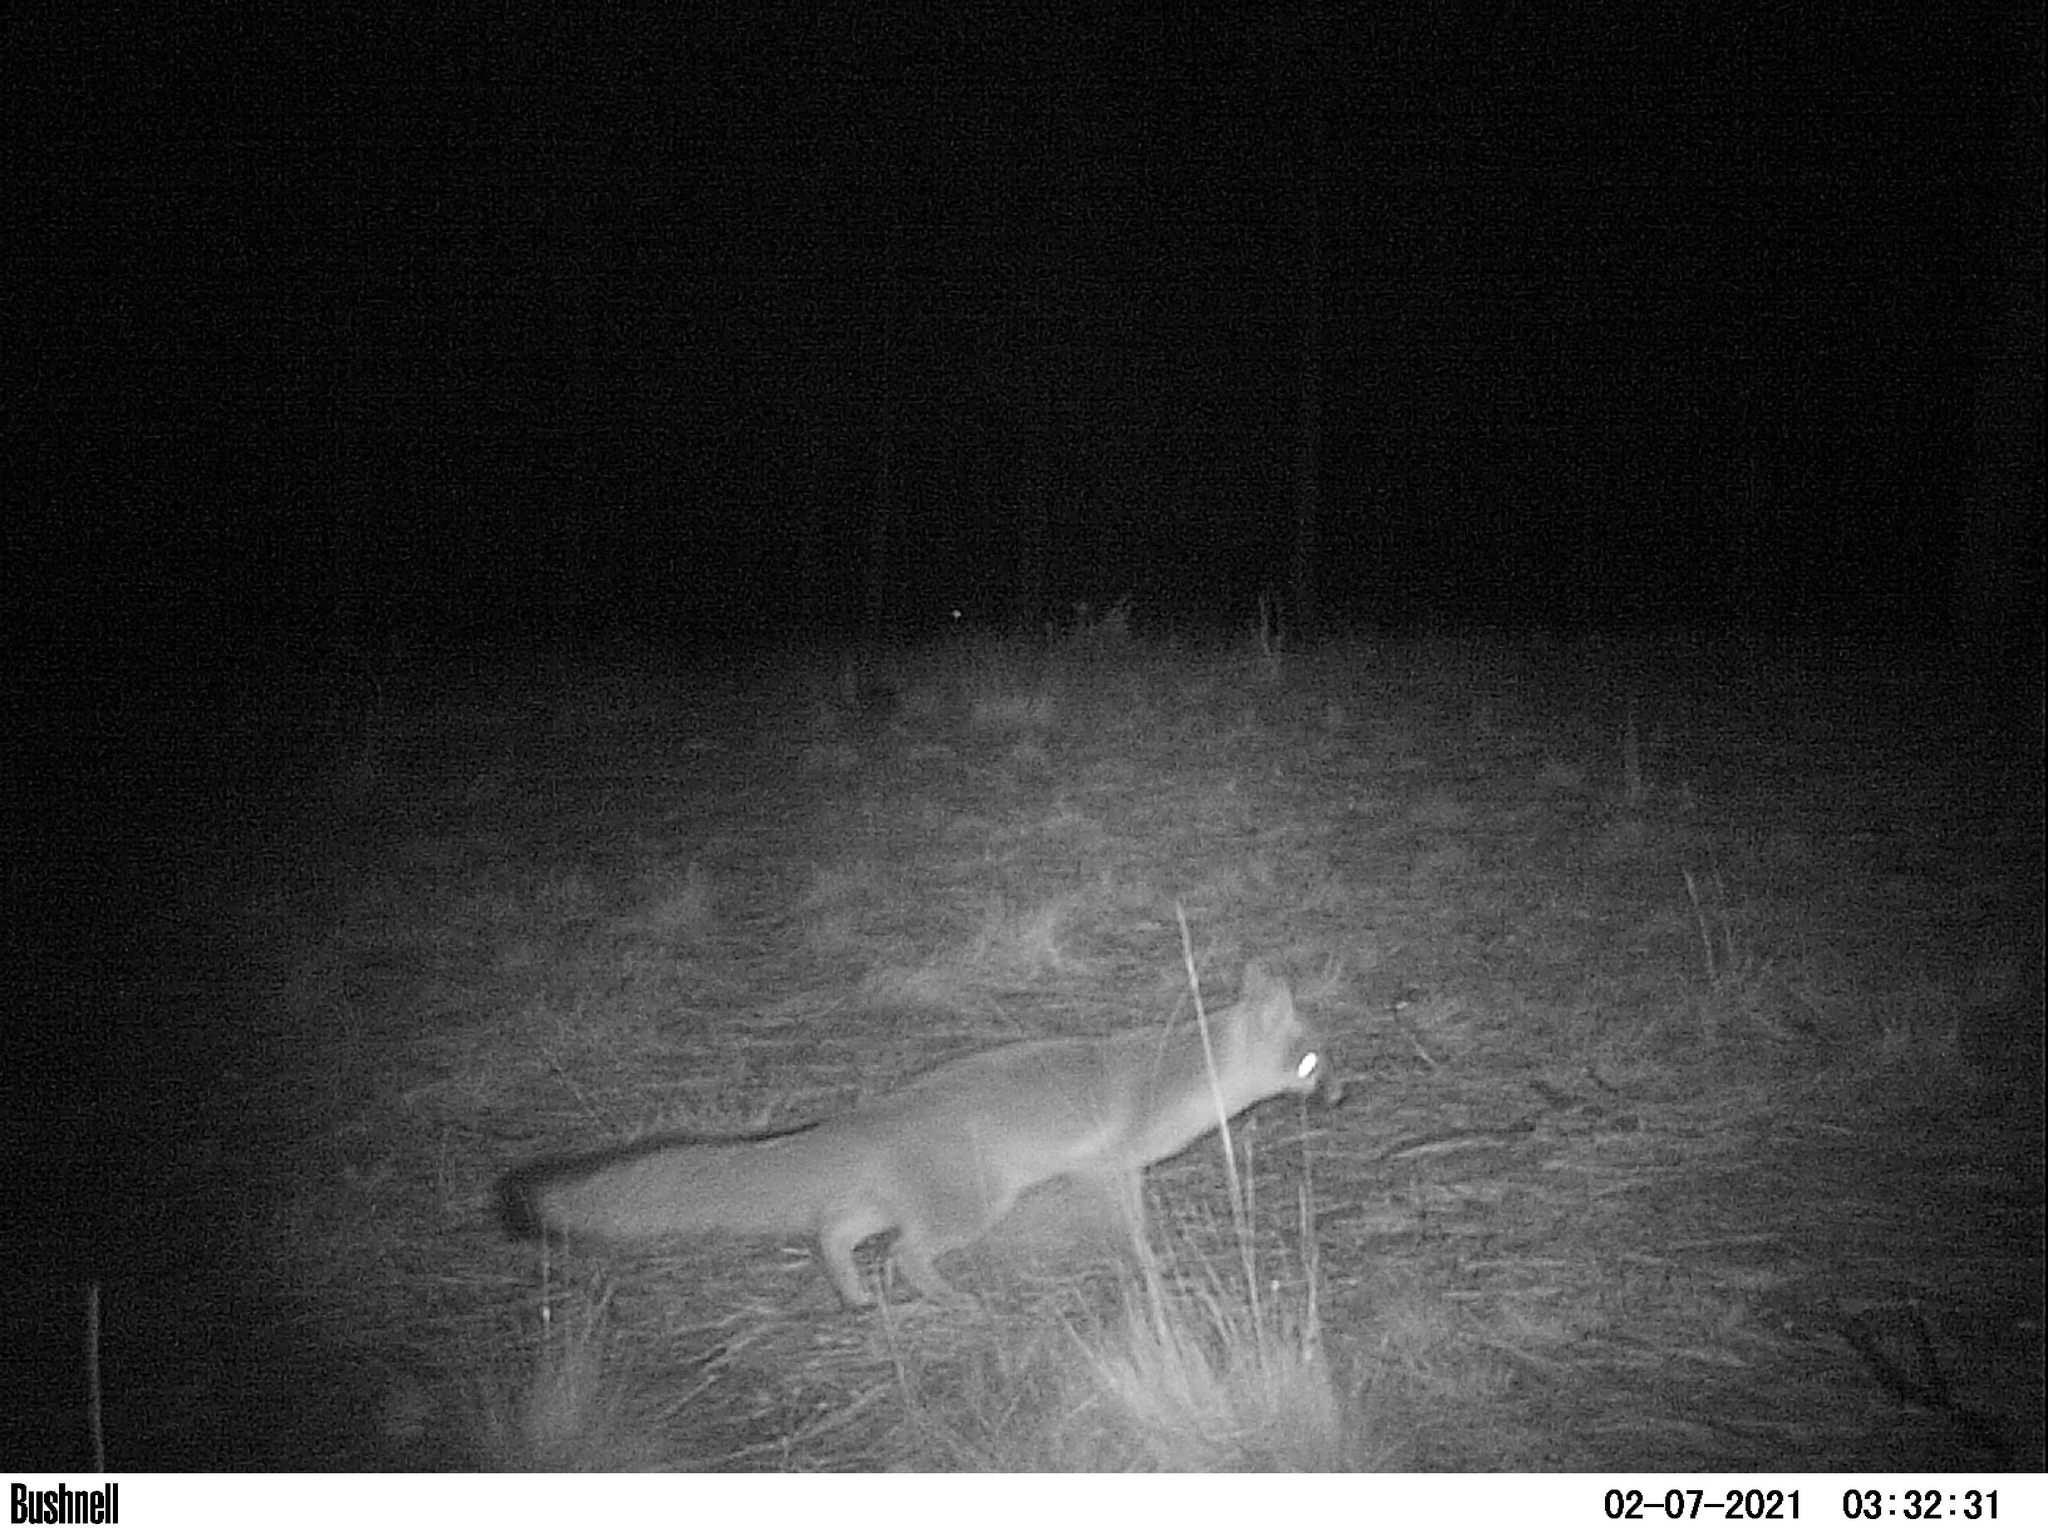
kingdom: Animalia
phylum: Chordata
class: Mammalia
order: Carnivora
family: Canidae
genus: Urocyon
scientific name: Urocyon cinereoargenteus
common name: Gray fox
